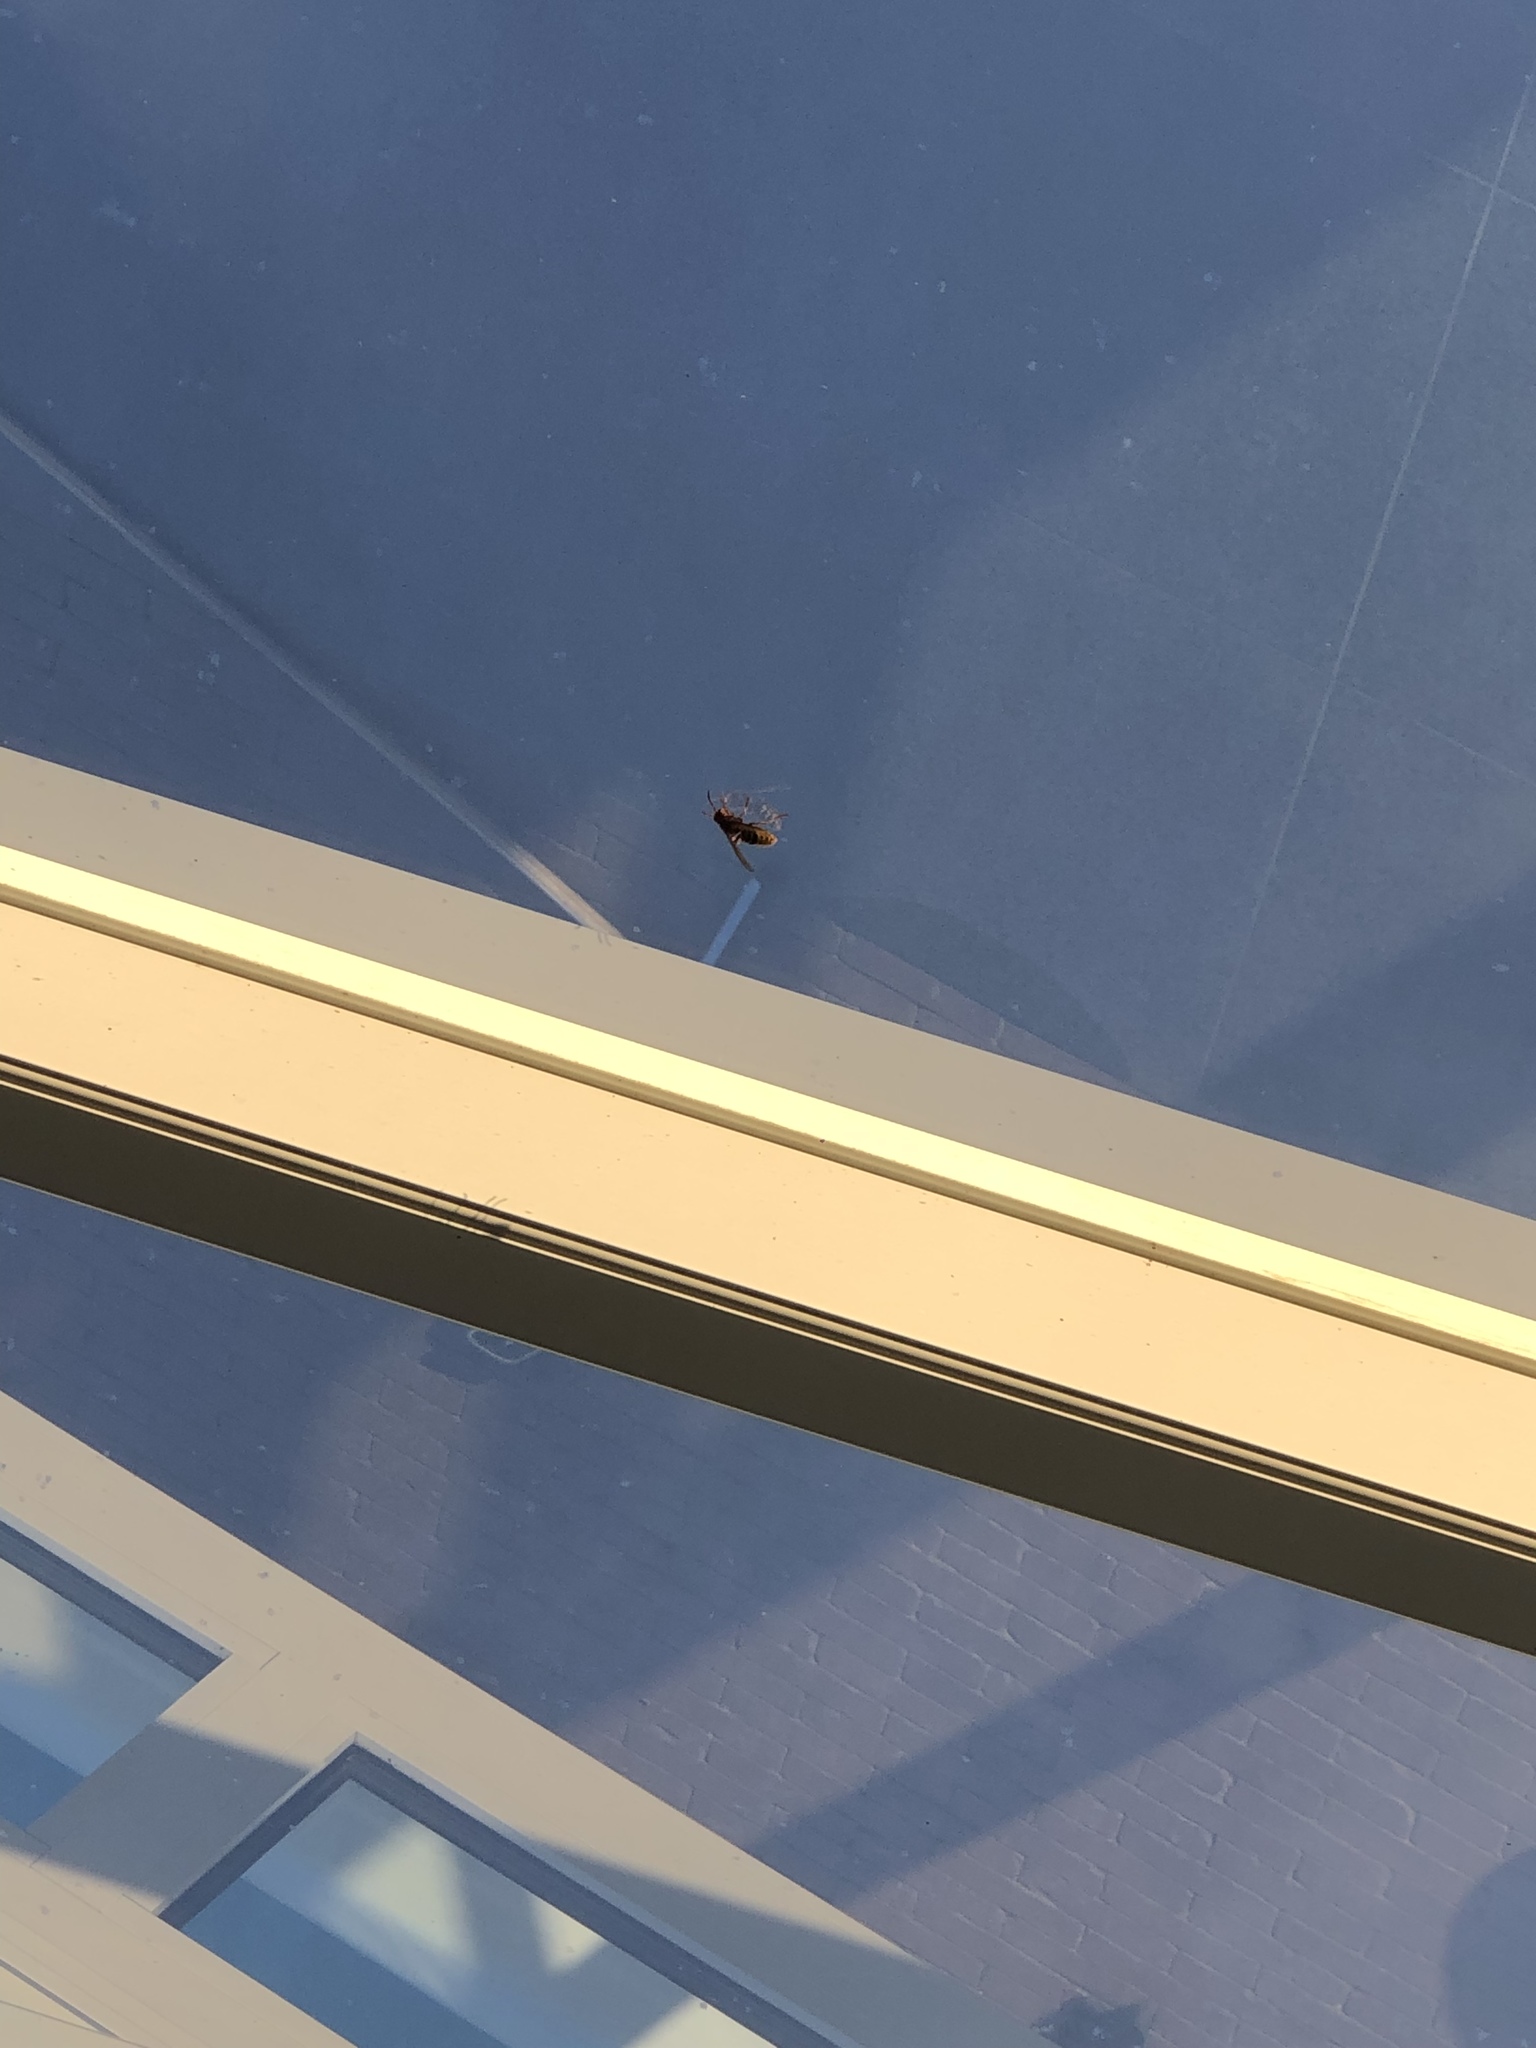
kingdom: Animalia
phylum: Arthropoda
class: Insecta
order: Hymenoptera
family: Vespidae
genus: Vespa
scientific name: Vespa crabro
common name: Hornet
